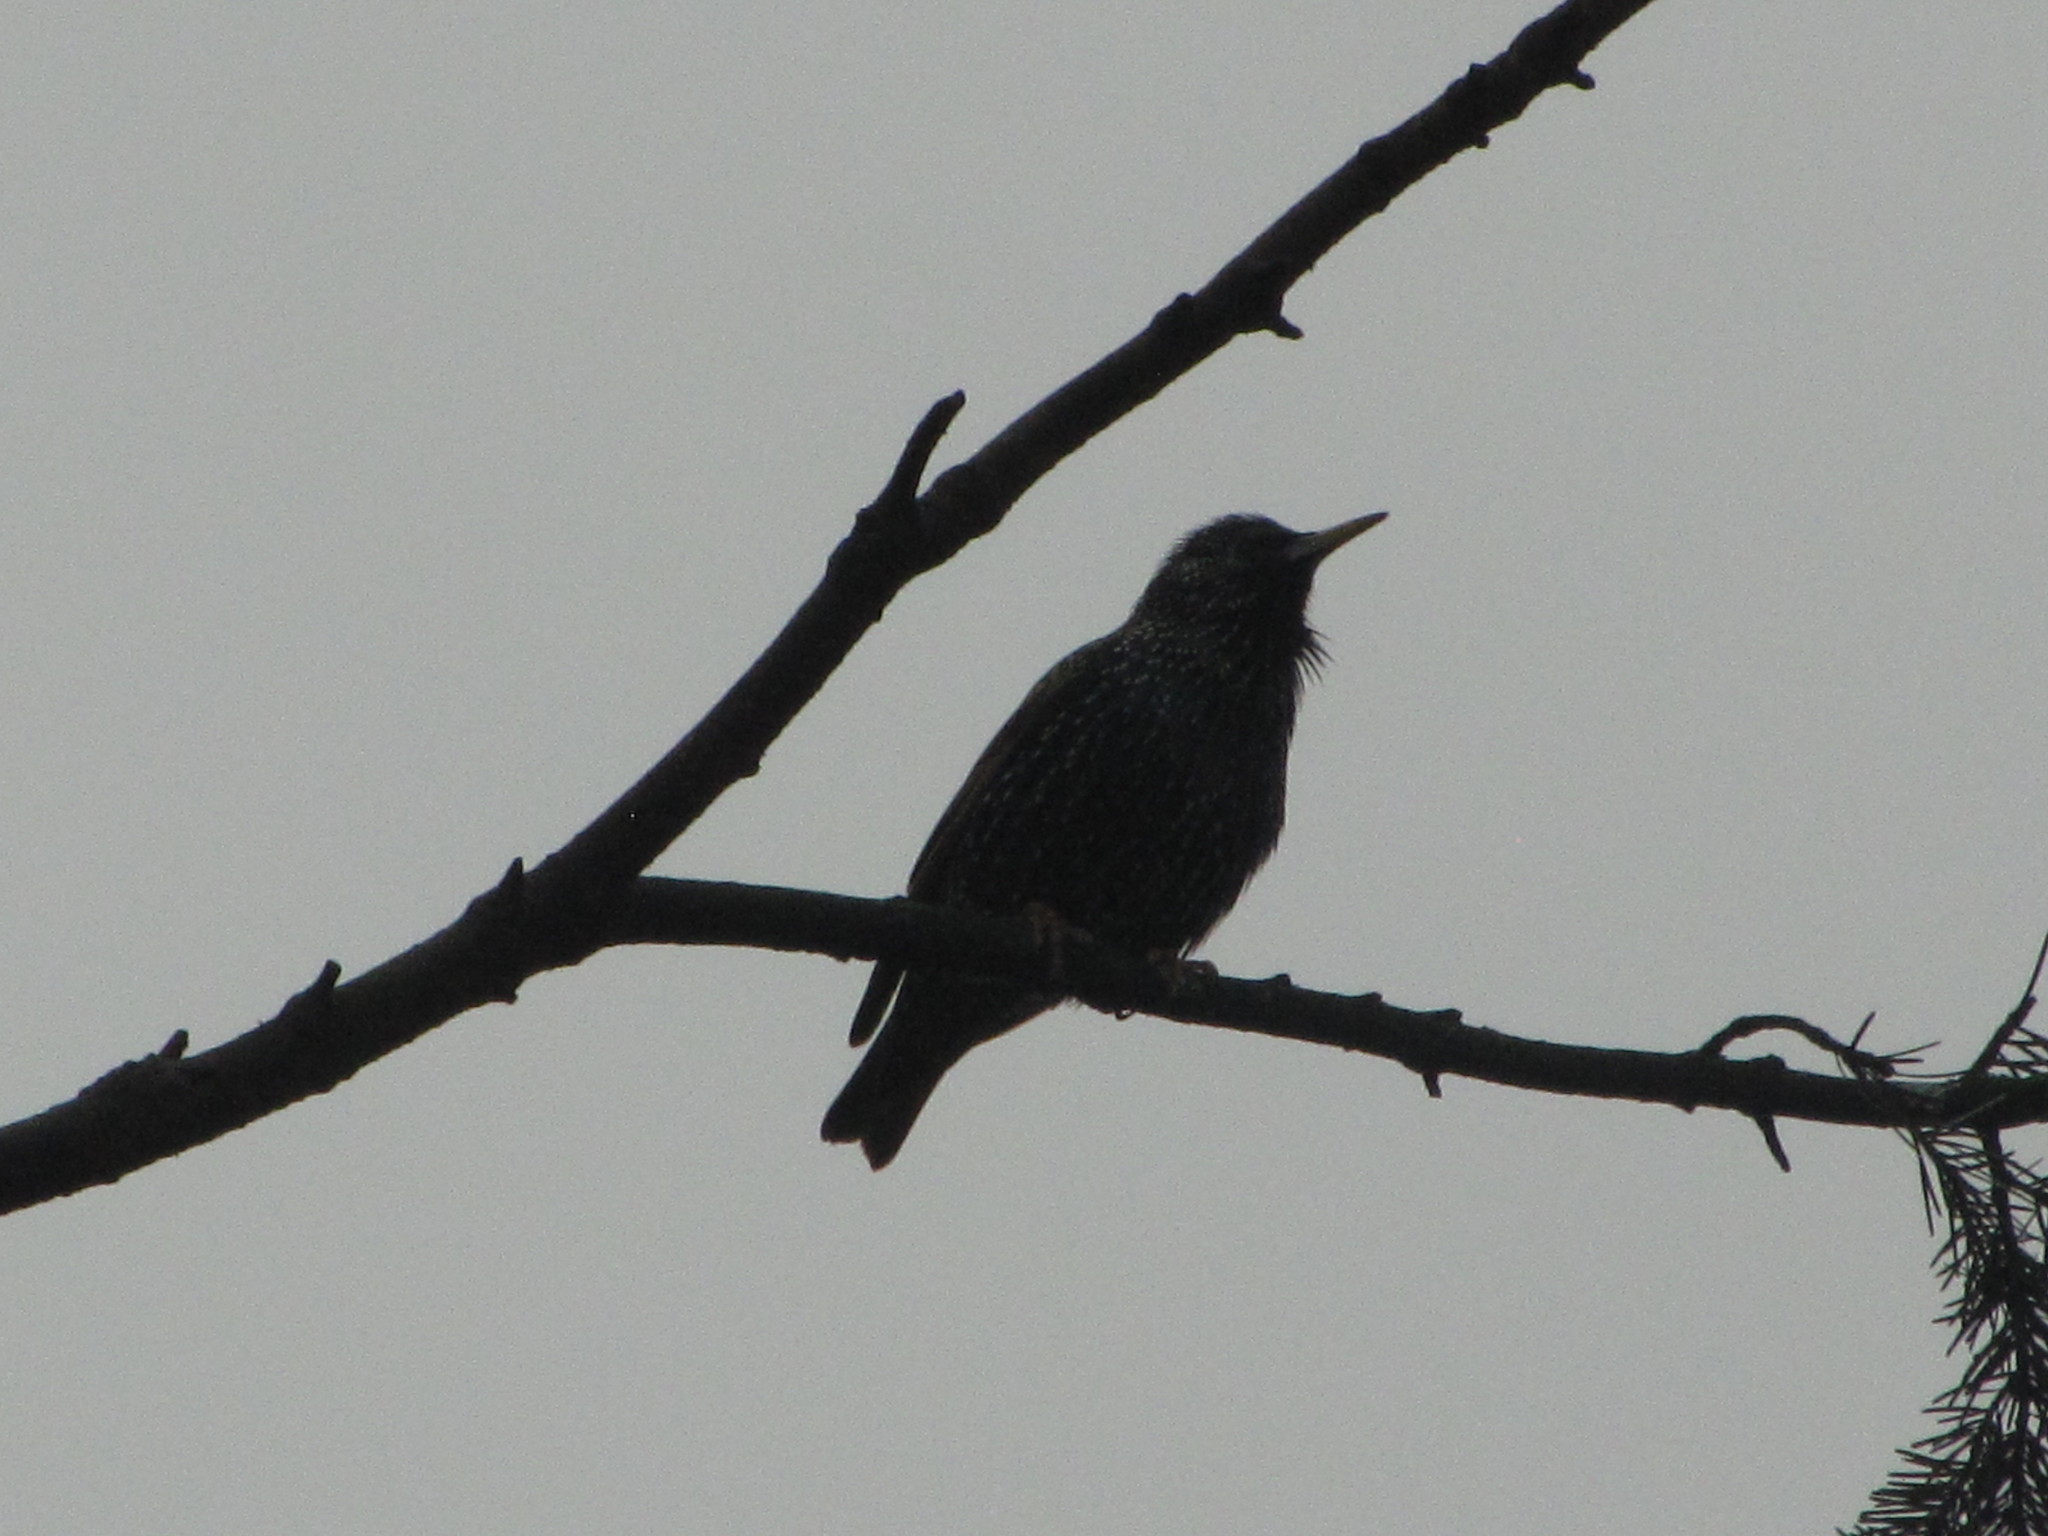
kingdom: Animalia
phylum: Chordata
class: Aves
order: Passeriformes
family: Sturnidae
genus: Sturnus
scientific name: Sturnus vulgaris
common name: Common starling
